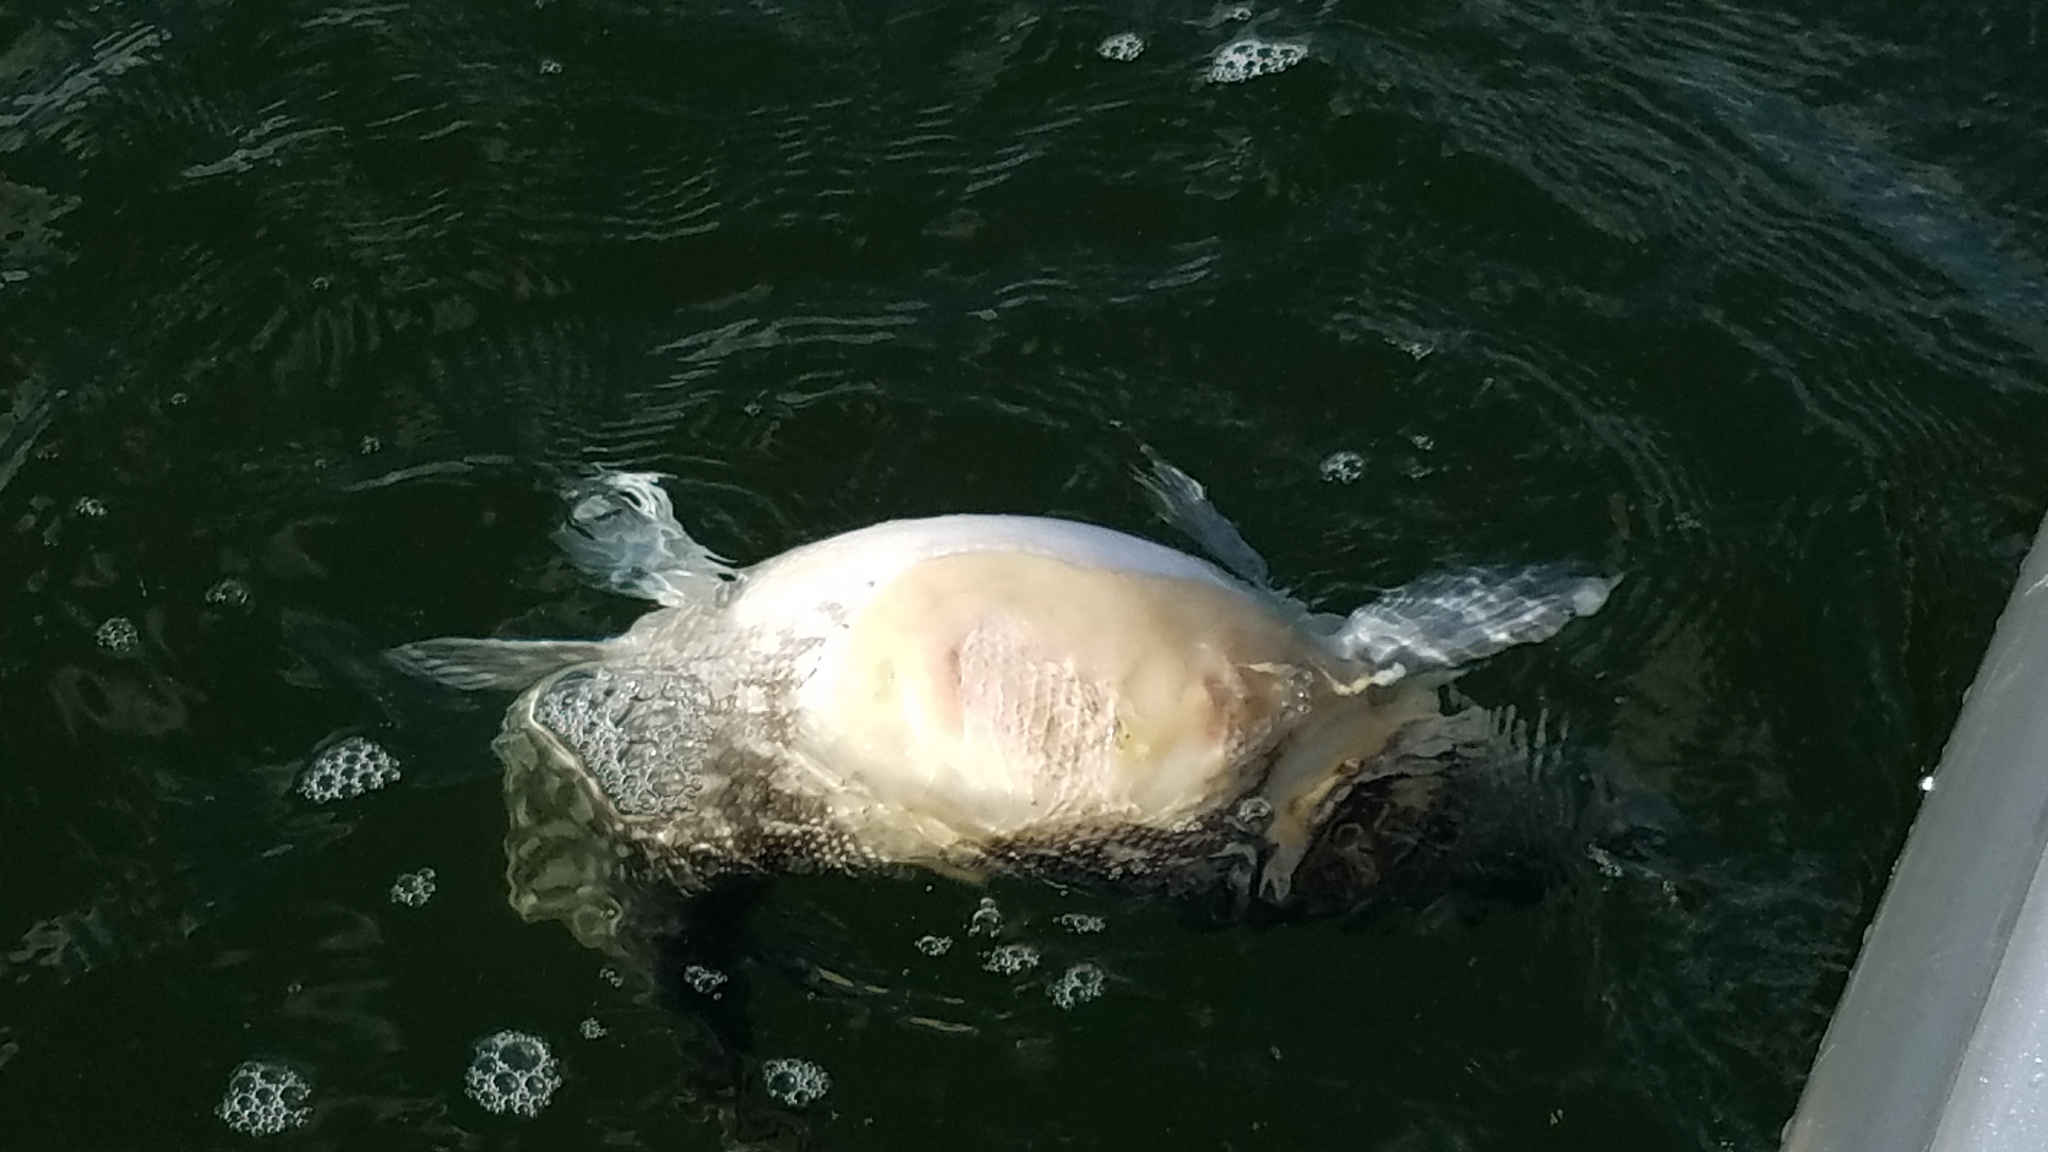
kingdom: Animalia
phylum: Chordata
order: Esociformes
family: Esocidae
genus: Esox
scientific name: Esox lucius
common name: Northern pike
